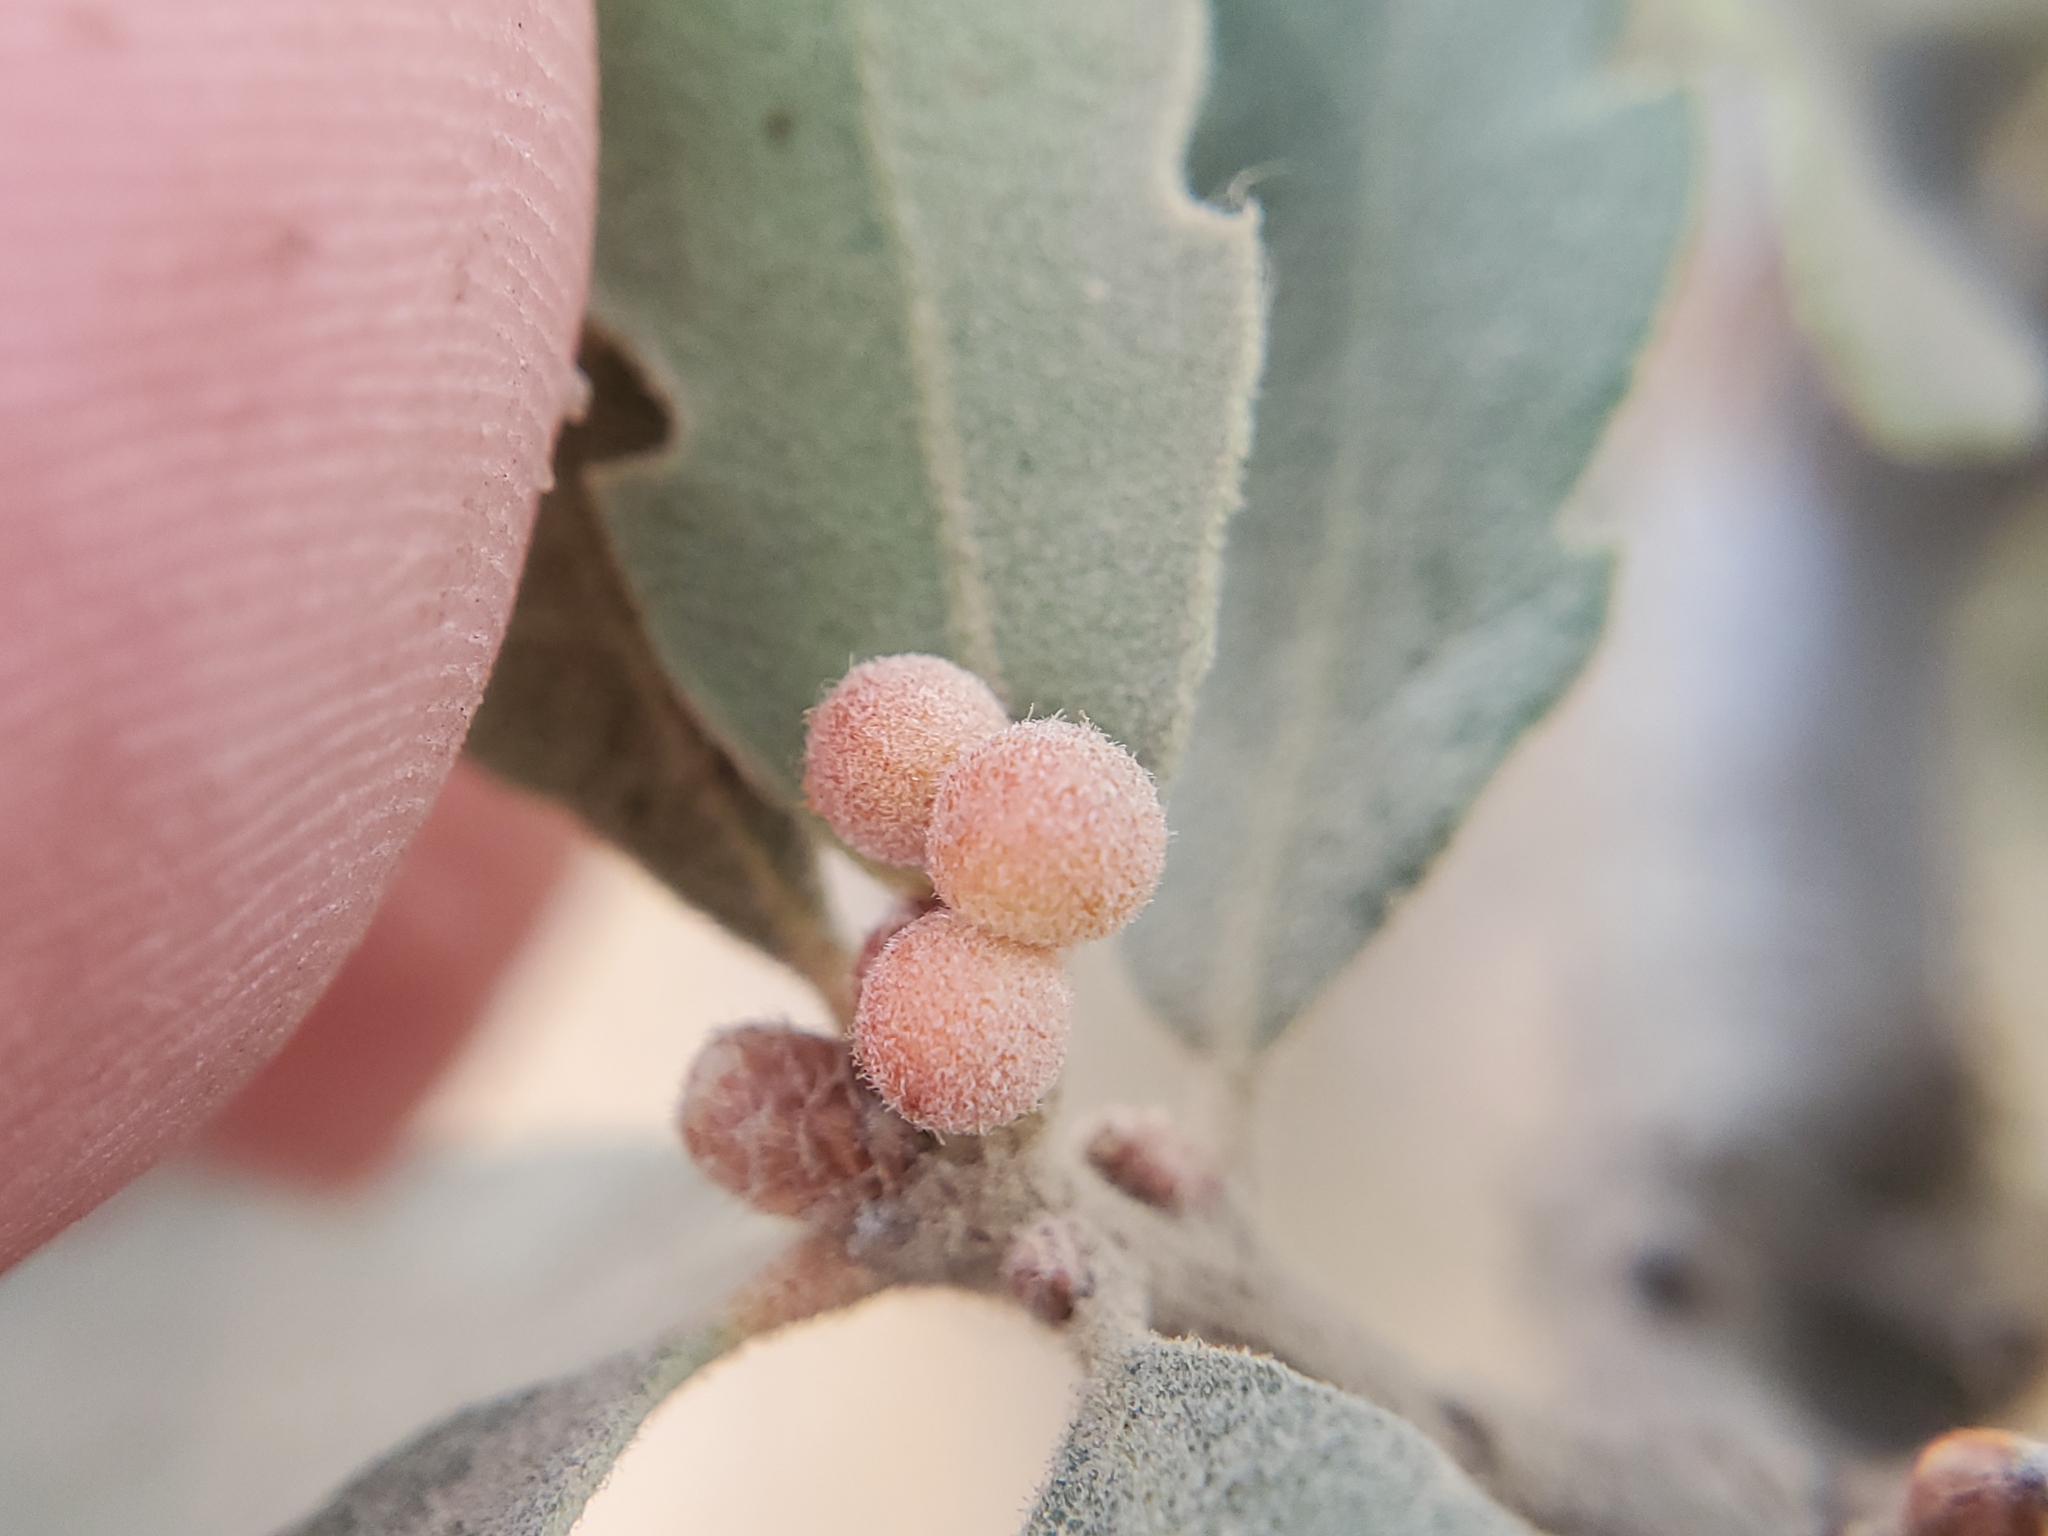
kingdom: Animalia
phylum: Arthropoda
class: Insecta
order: Hymenoptera
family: Cynipidae
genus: Andricus
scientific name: Andricus
